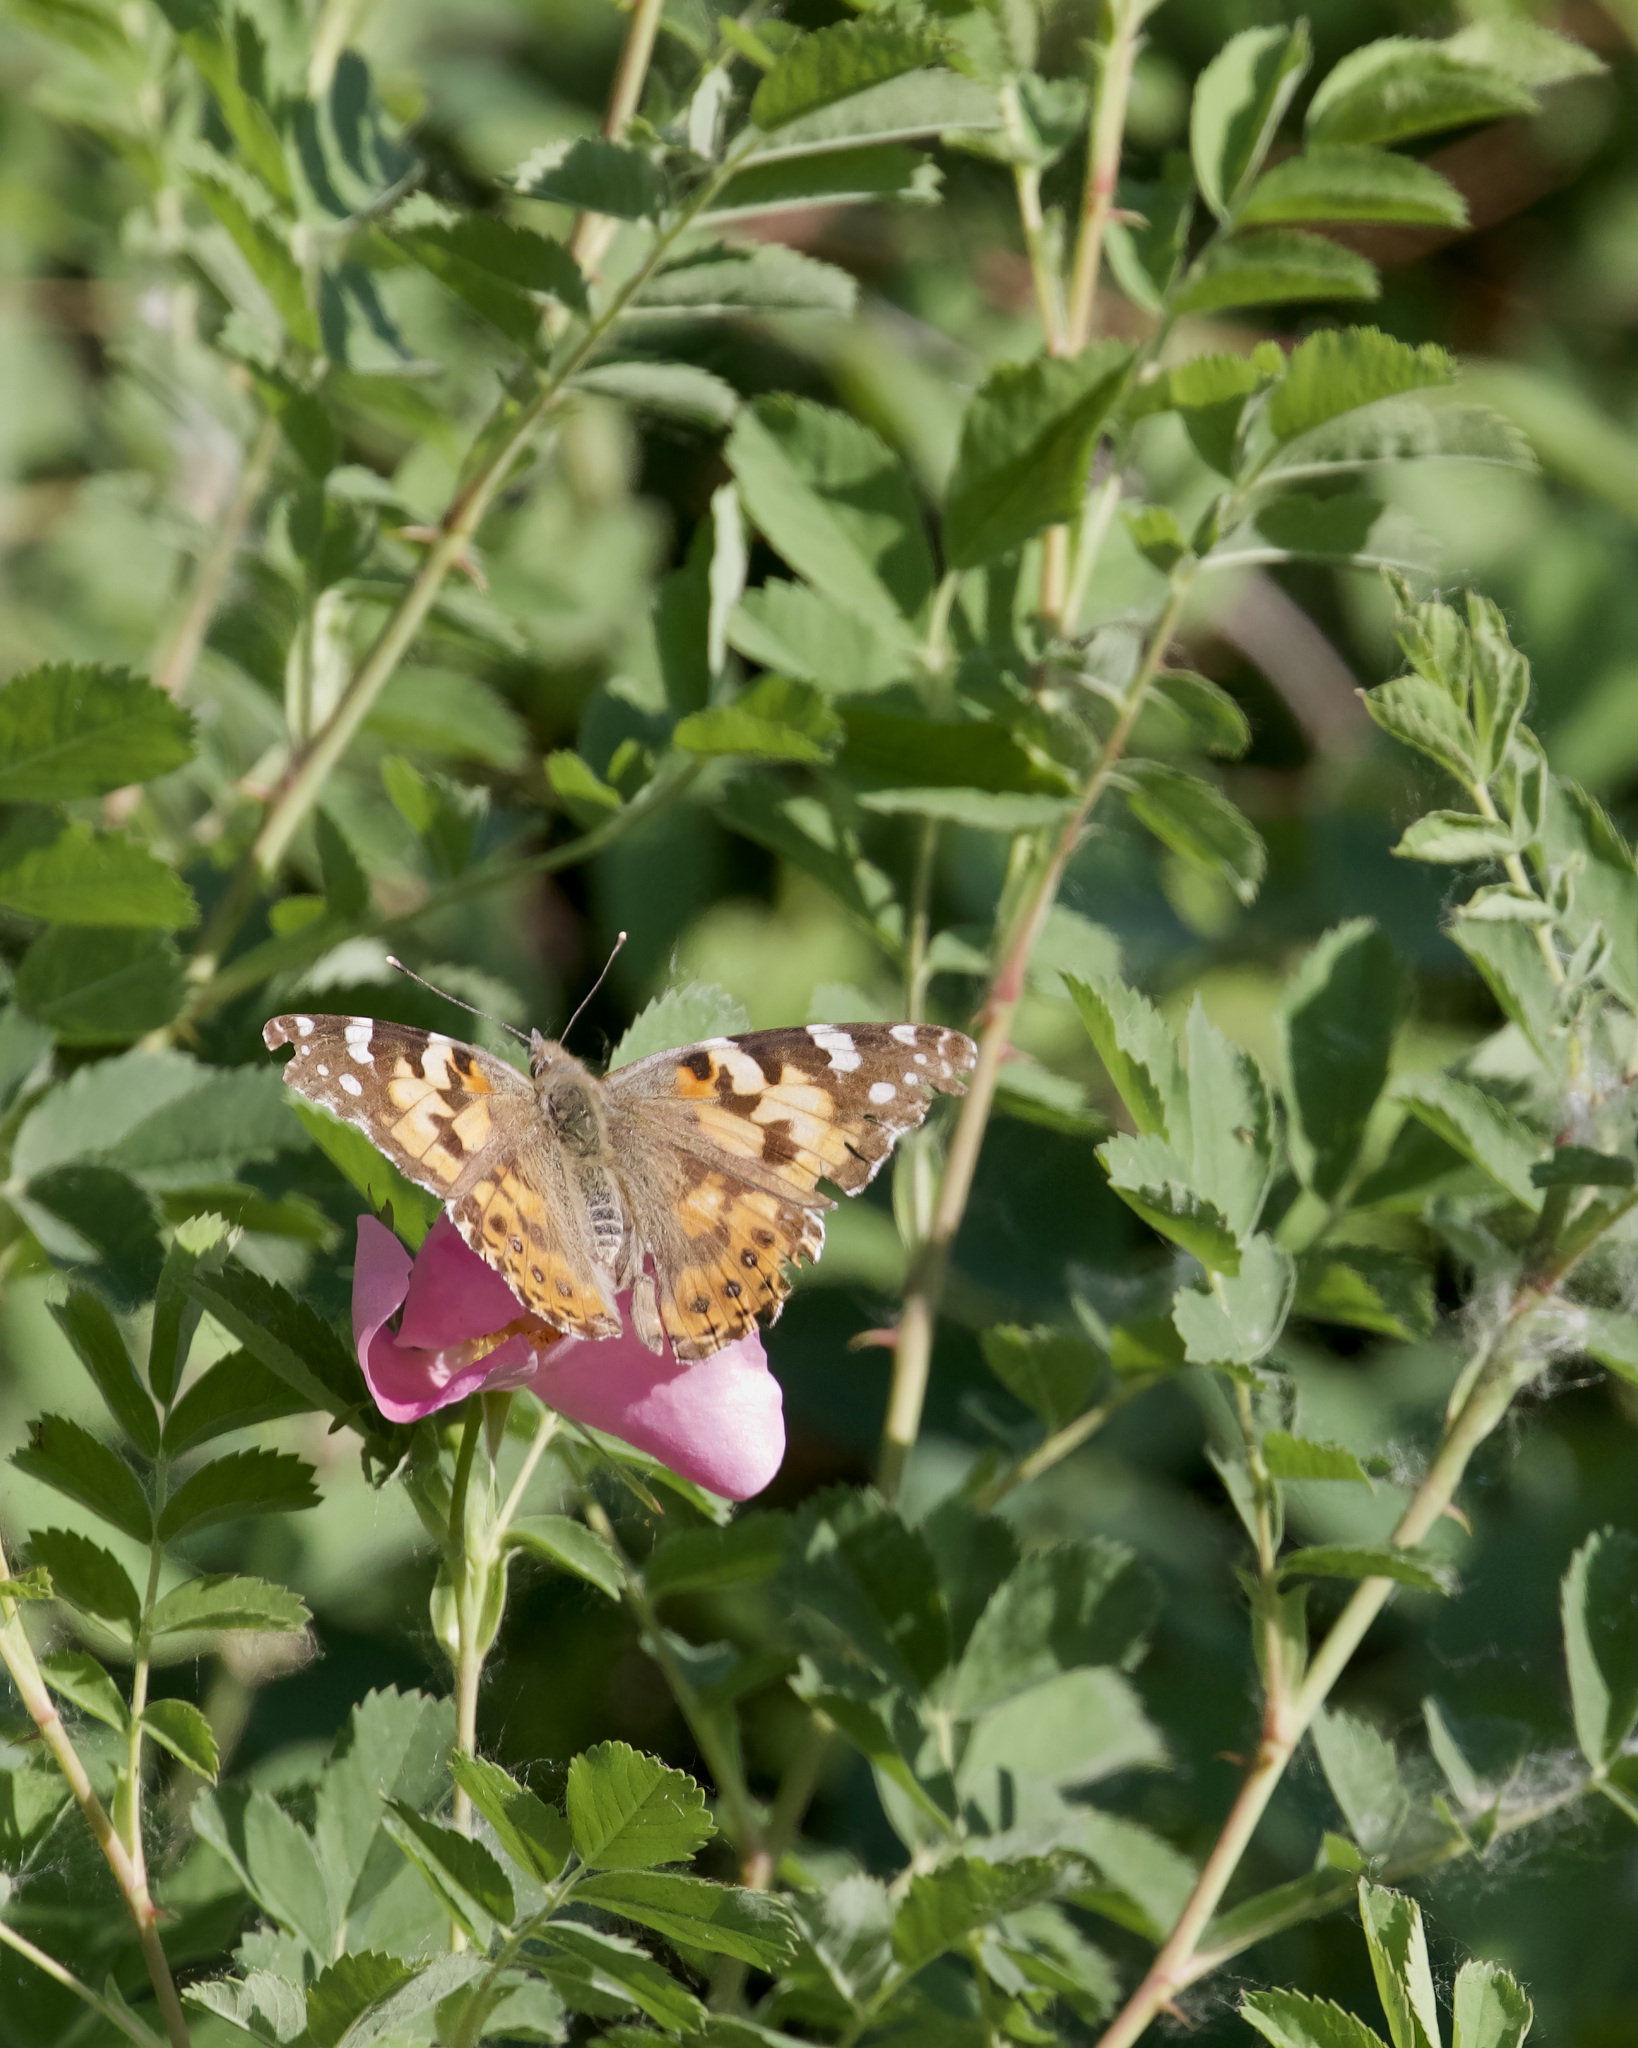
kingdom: Animalia
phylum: Arthropoda
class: Insecta
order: Lepidoptera
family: Nymphalidae
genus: Vanessa
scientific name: Vanessa cardui
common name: Painted lady
